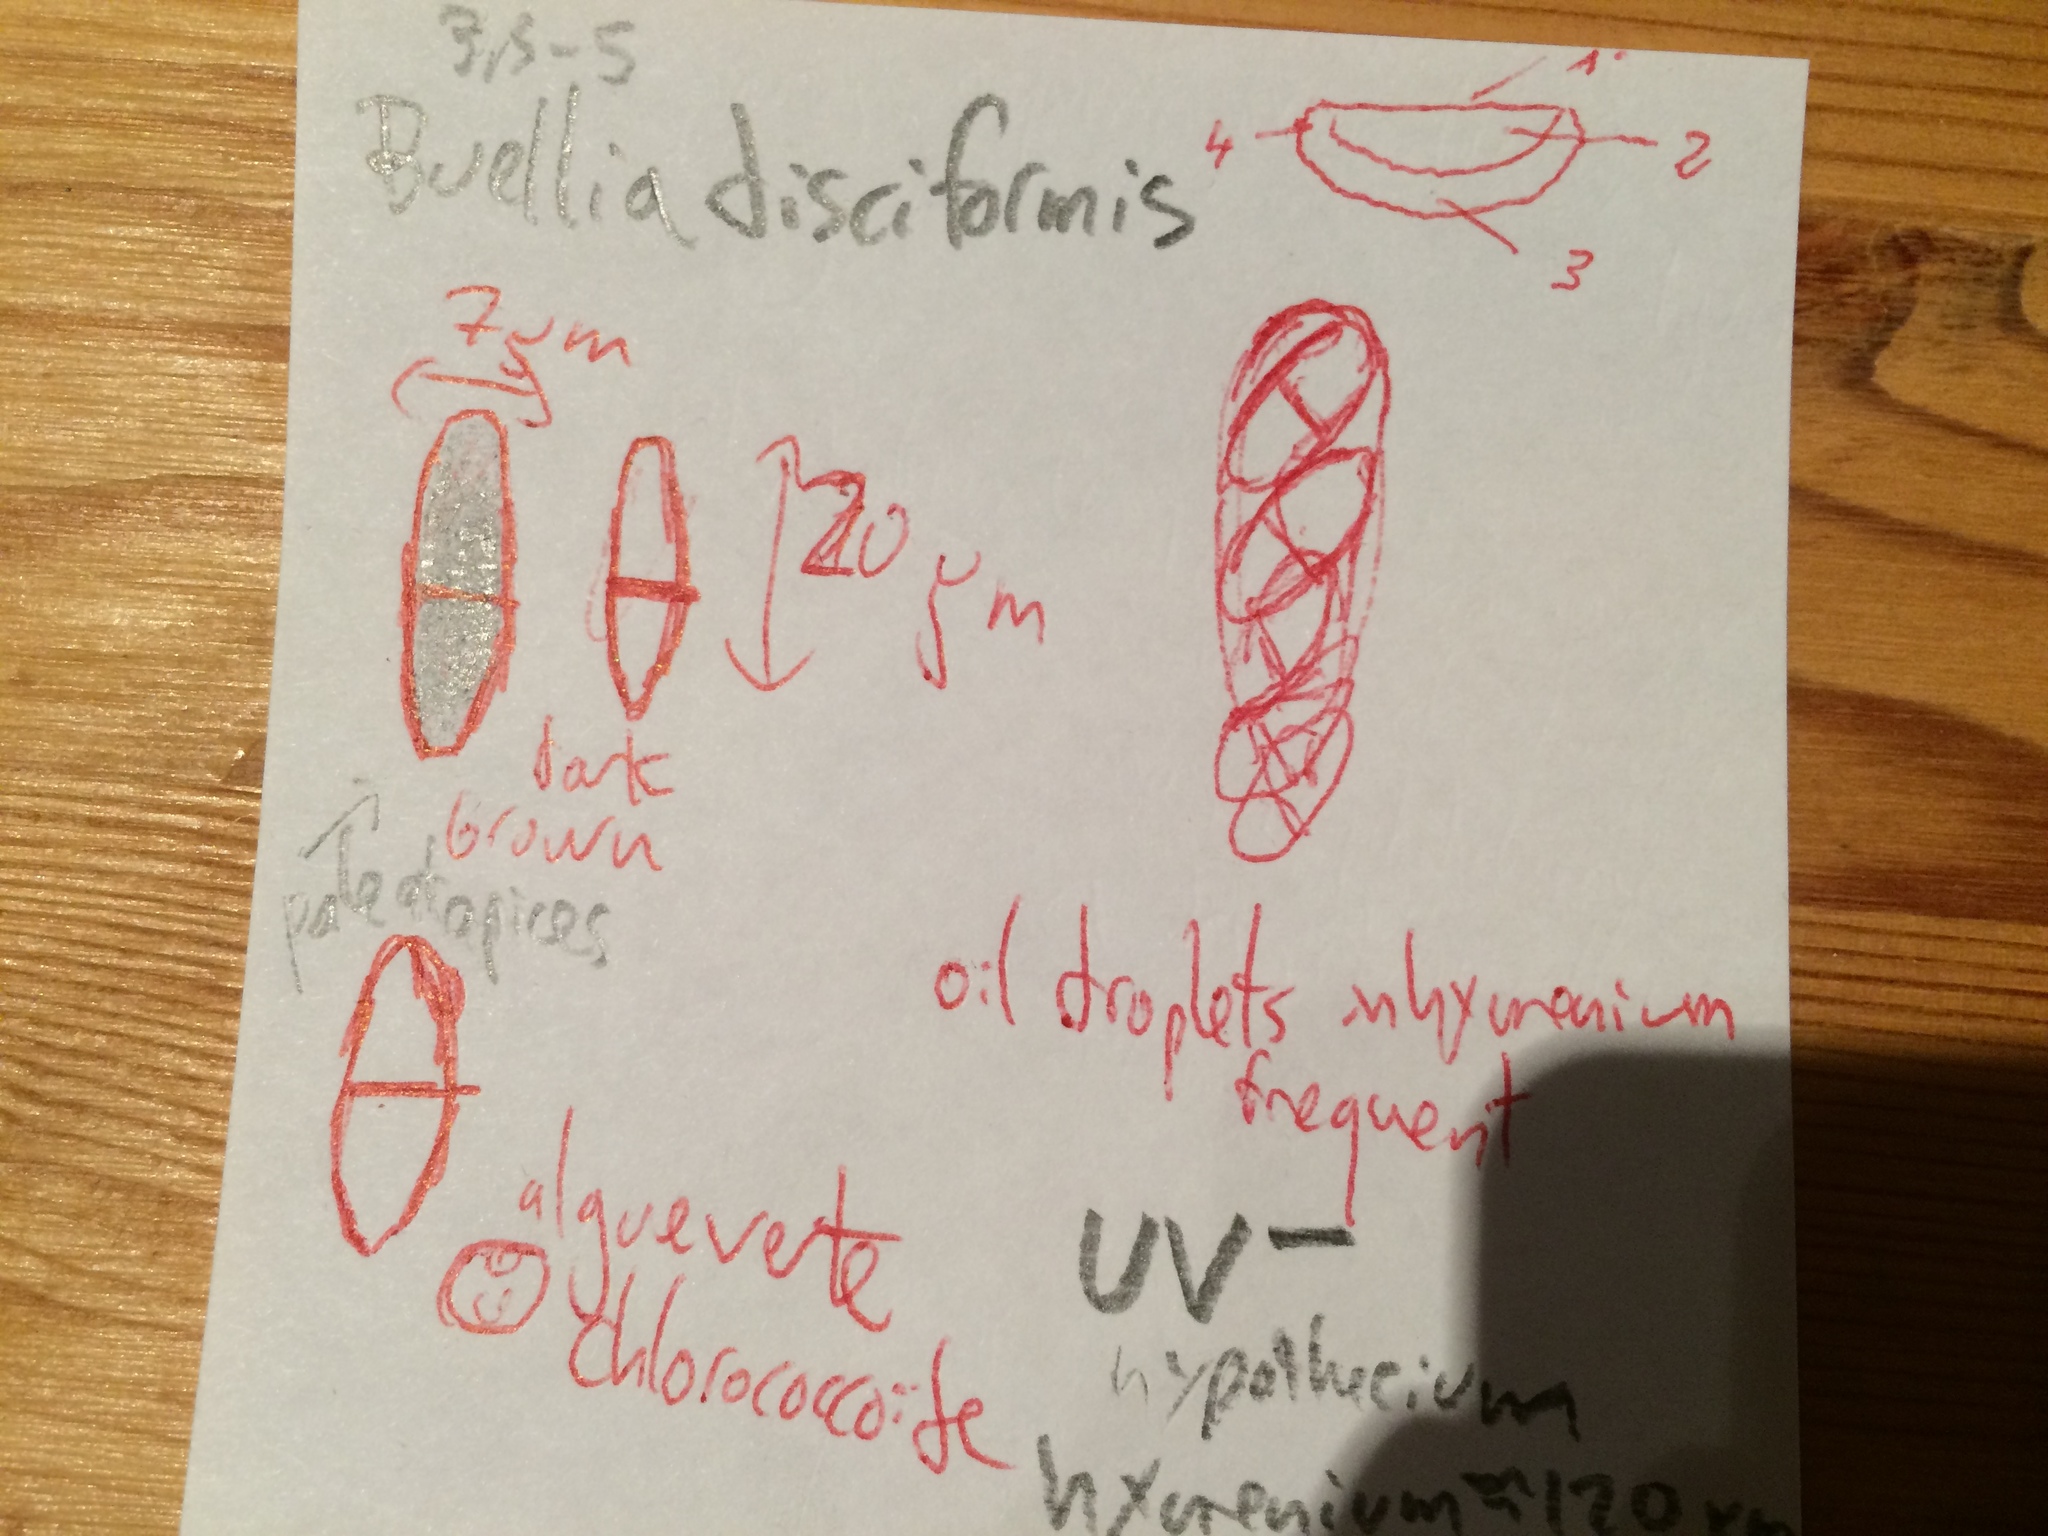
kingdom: Fungi
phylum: Ascomycota
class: Lecanoromycetes
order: Caliciales
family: Caliciaceae
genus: Buellia
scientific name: Buellia disciformis
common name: Boreal button lichen
